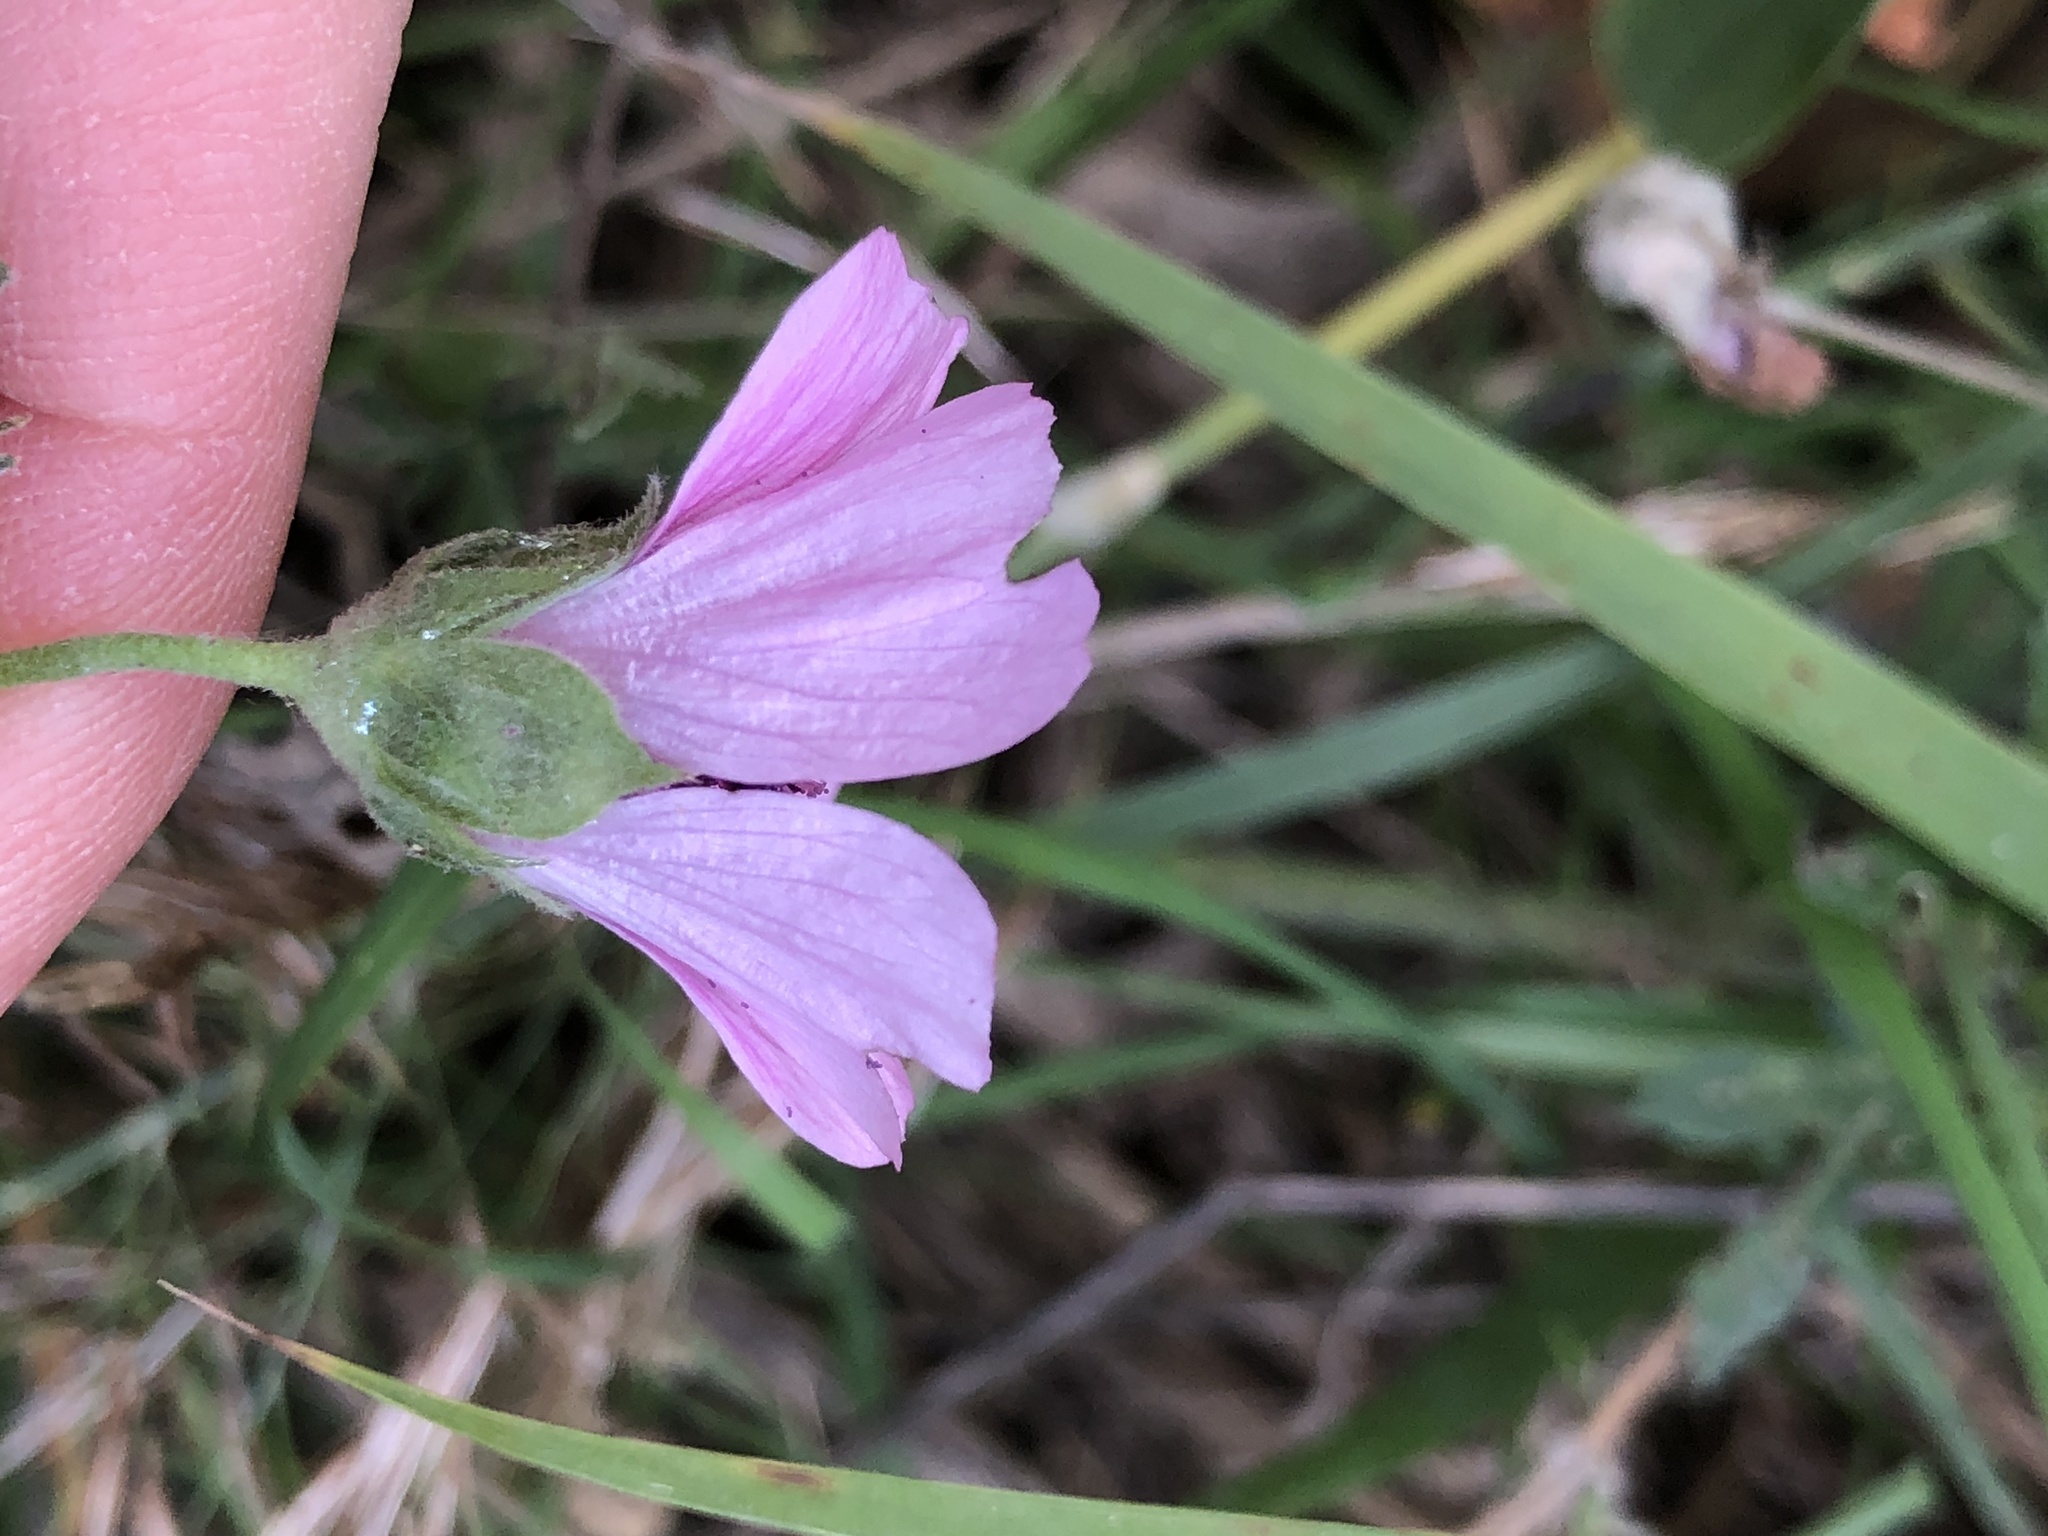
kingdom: Plantae
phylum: Tracheophyta
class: Magnoliopsida
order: Malvales
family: Malvaceae
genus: Althaea
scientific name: Althaea cannabina
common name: Palm-leaf marshmallow
